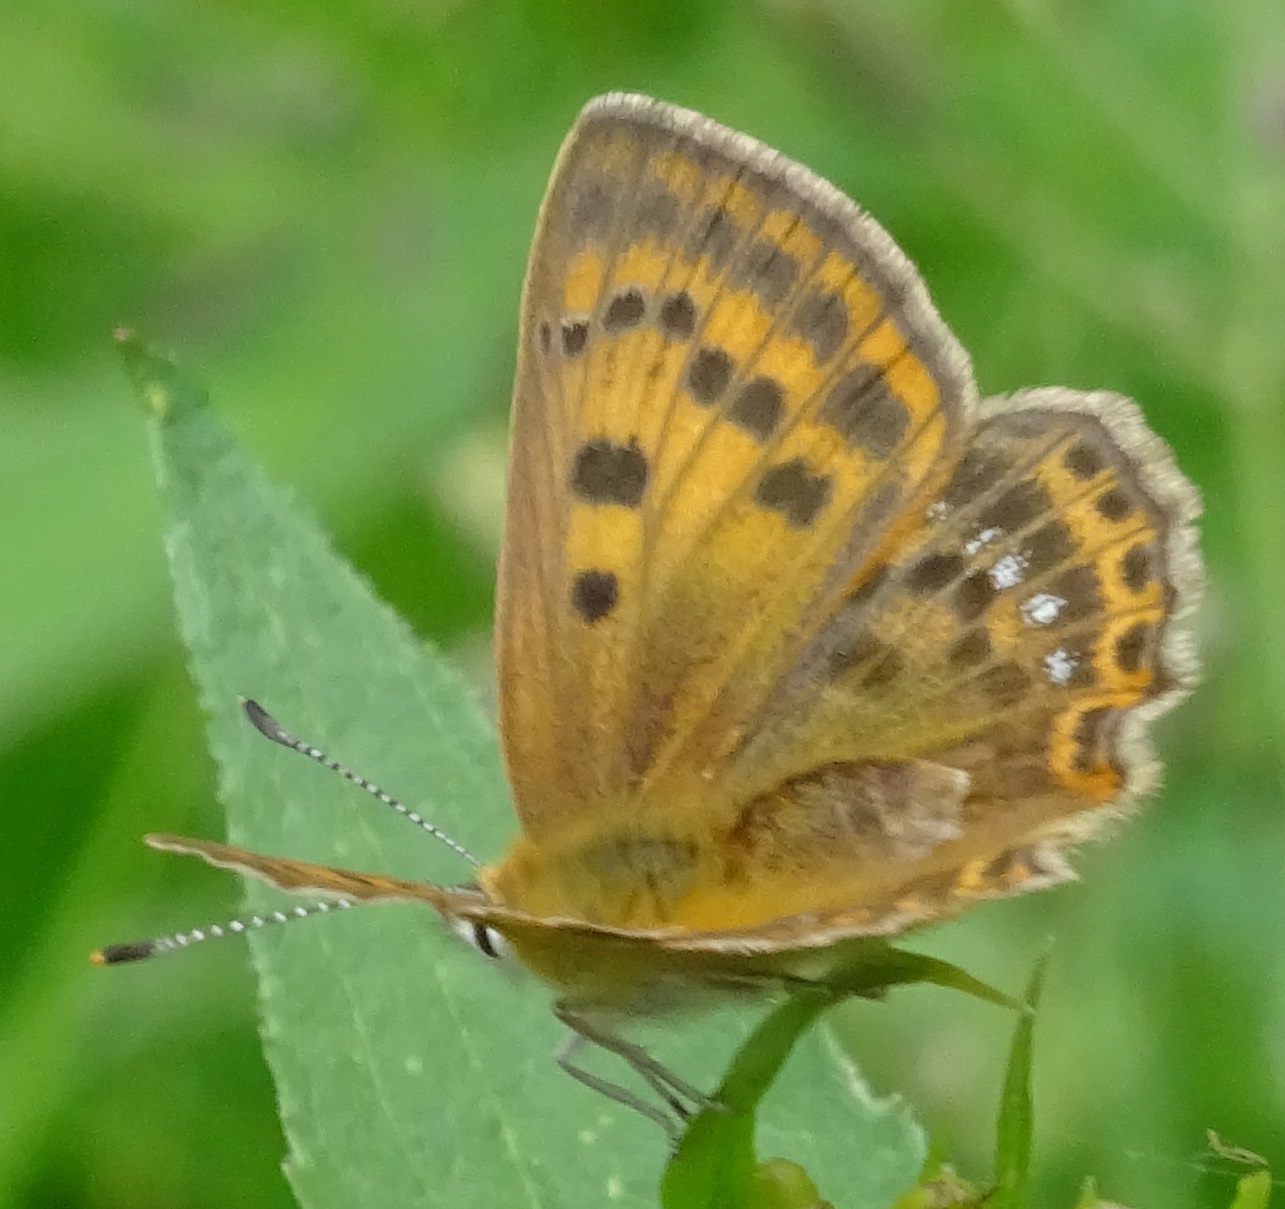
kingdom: Animalia
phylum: Arthropoda
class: Insecta
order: Lepidoptera
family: Lycaenidae
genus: Lycaena
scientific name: Lycaena virgaureae
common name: Scarce copper
